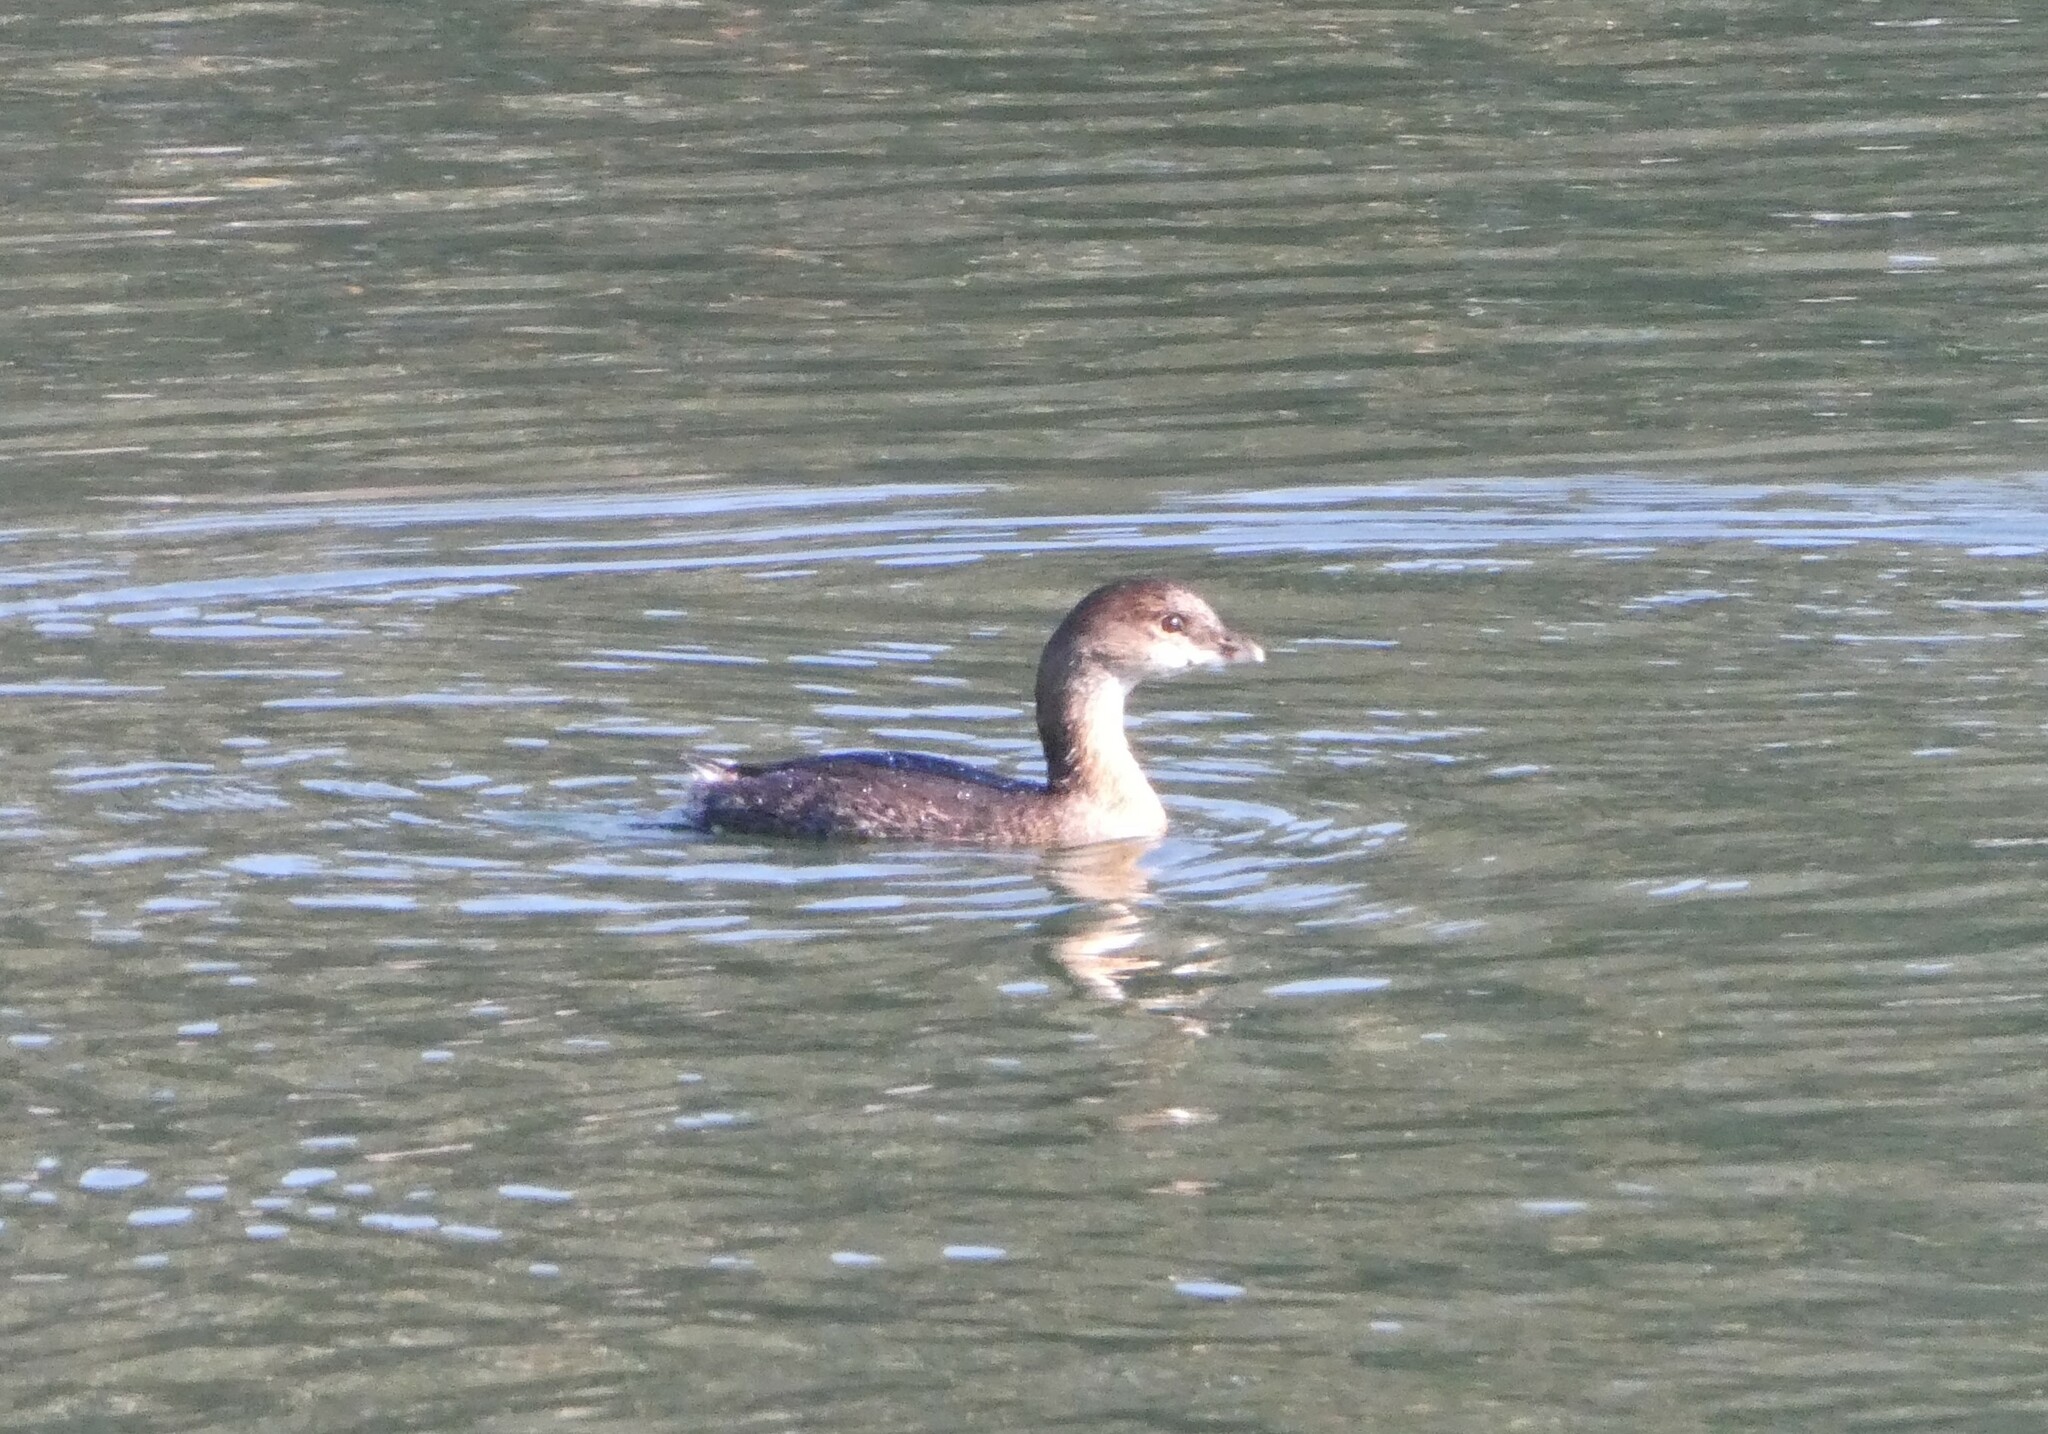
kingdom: Animalia
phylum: Chordata
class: Aves
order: Podicipediformes
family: Podicipedidae
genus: Podilymbus
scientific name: Podilymbus podiceps
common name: Pied-billed grebe
